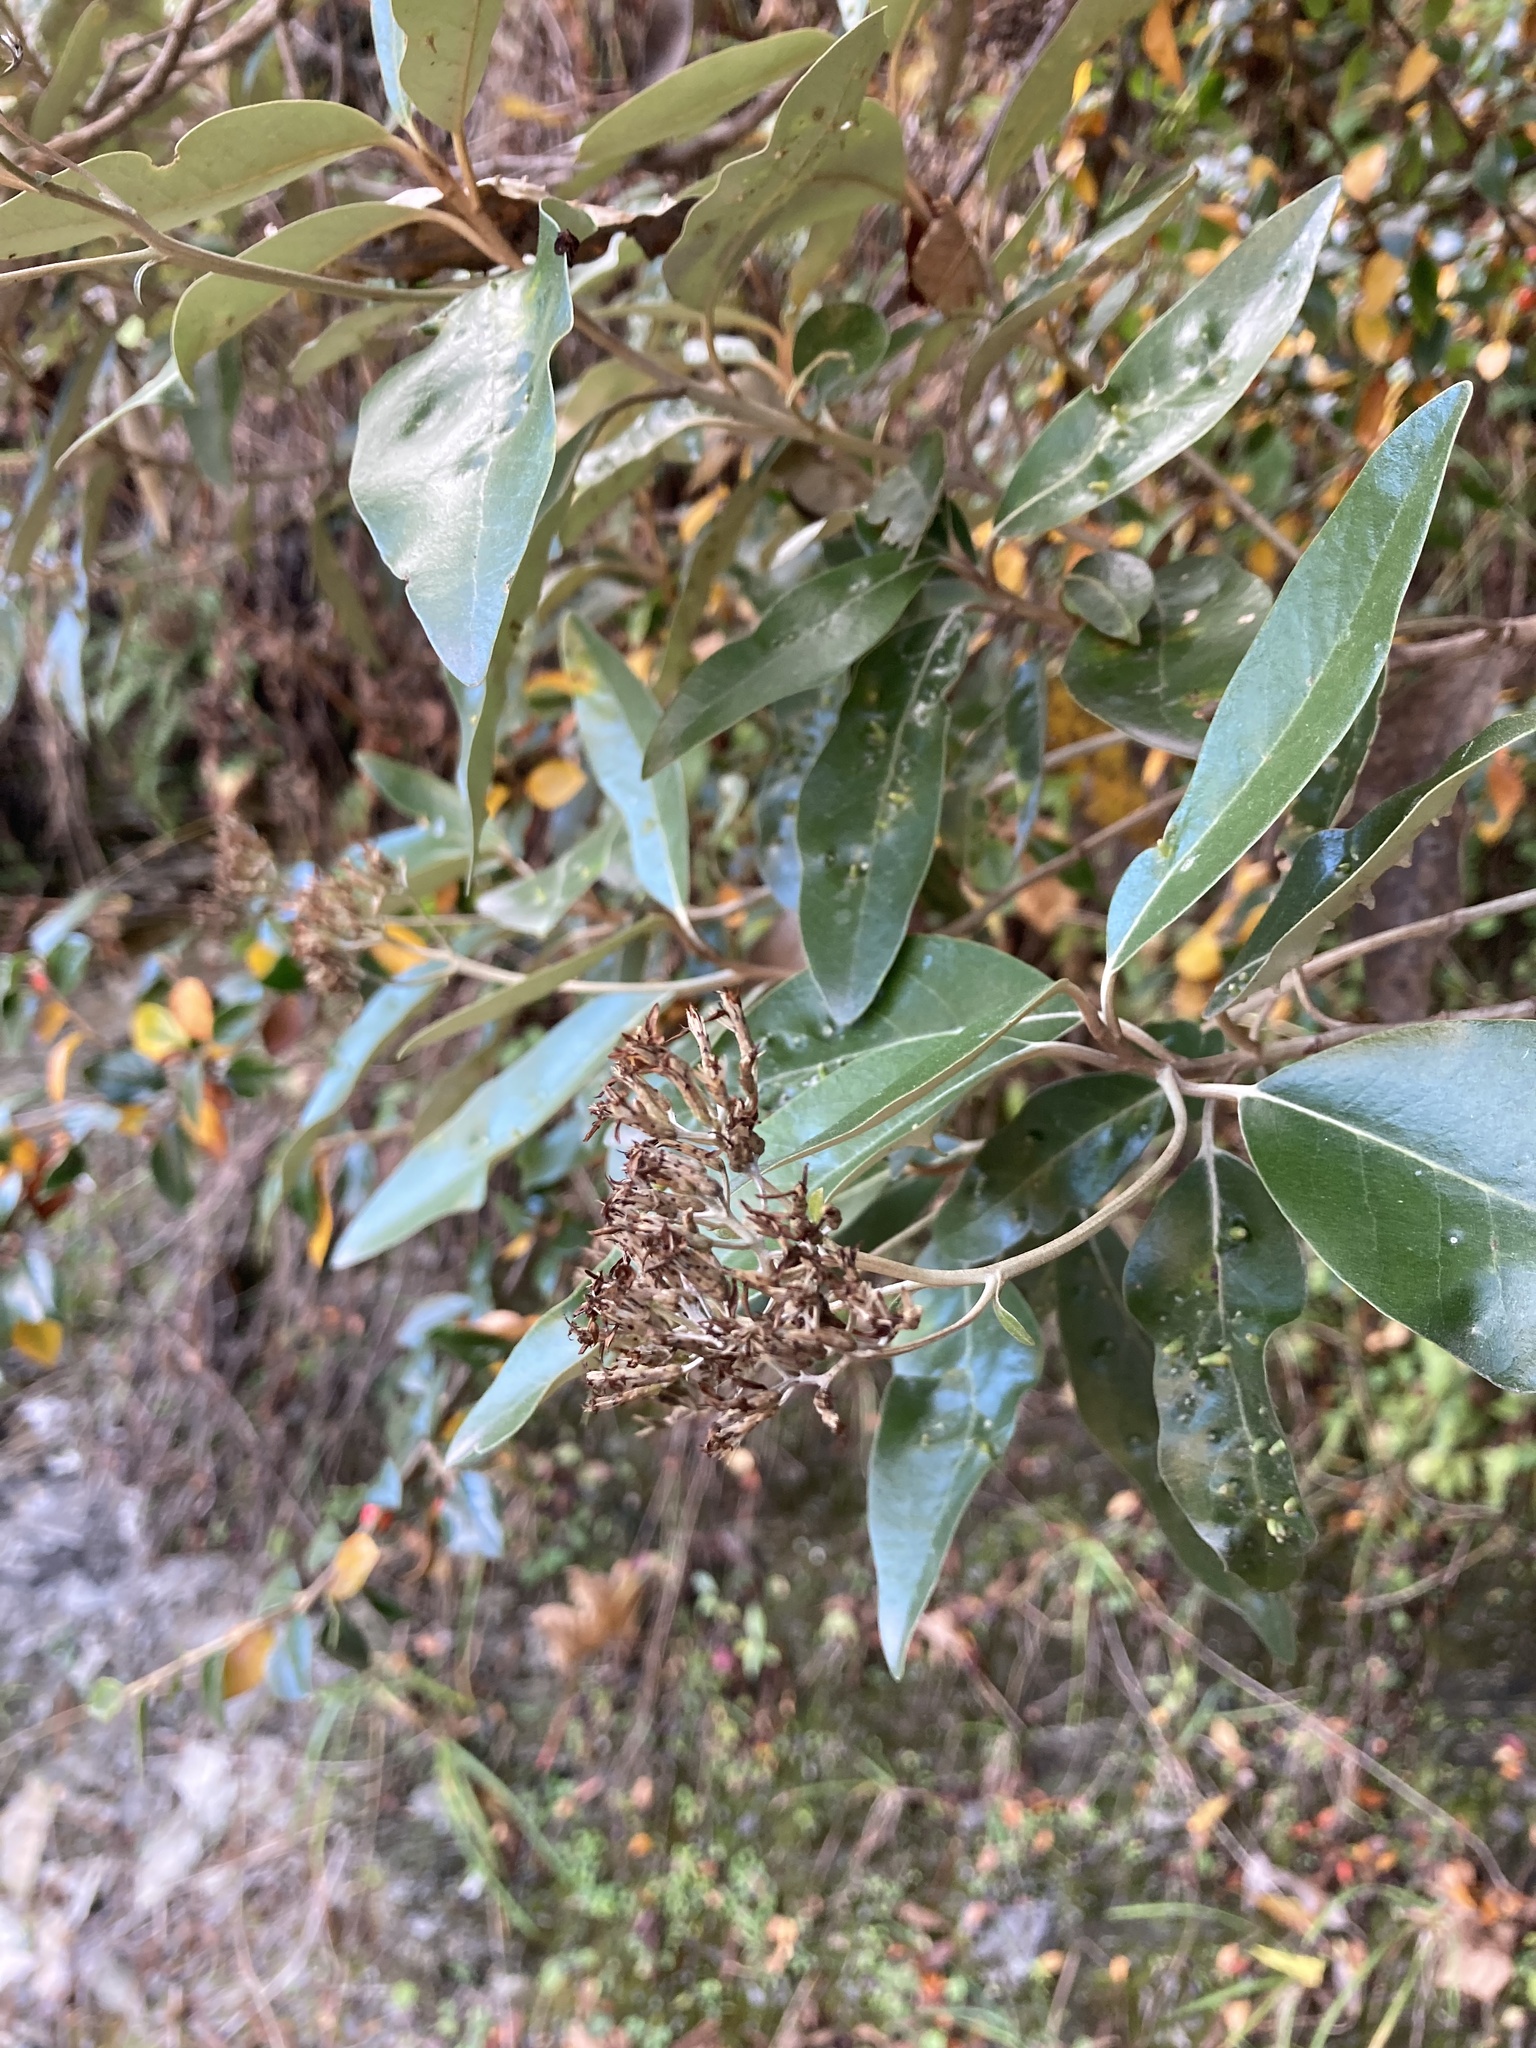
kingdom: Plantae
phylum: Tracheophyta
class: Magnoliopsida
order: Asterales
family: Asteraceae
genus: Olearia
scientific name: Olearia avicenniifolia
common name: Mangrove-leaf daisybush
